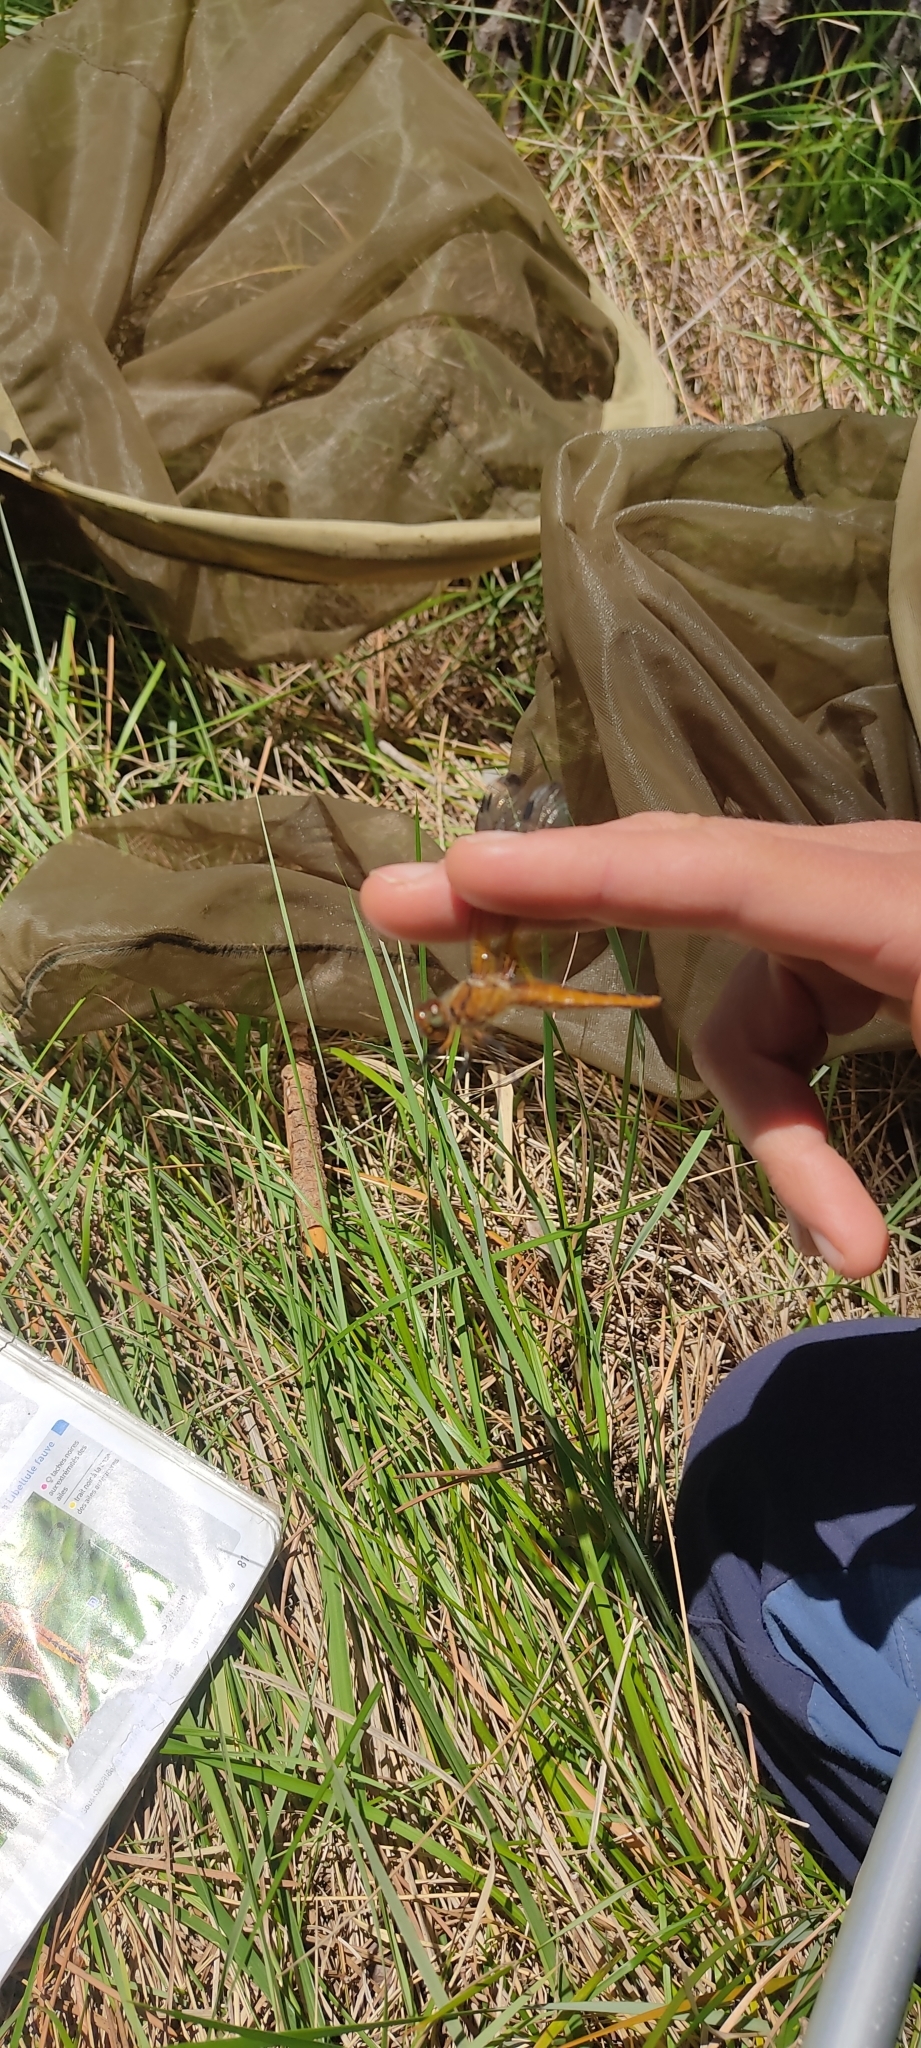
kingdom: Animalia
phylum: Arthropoda
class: Insecta
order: Odonata
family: Libellulidae
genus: Libellula
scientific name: Libellula fulva
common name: Blue chaser
